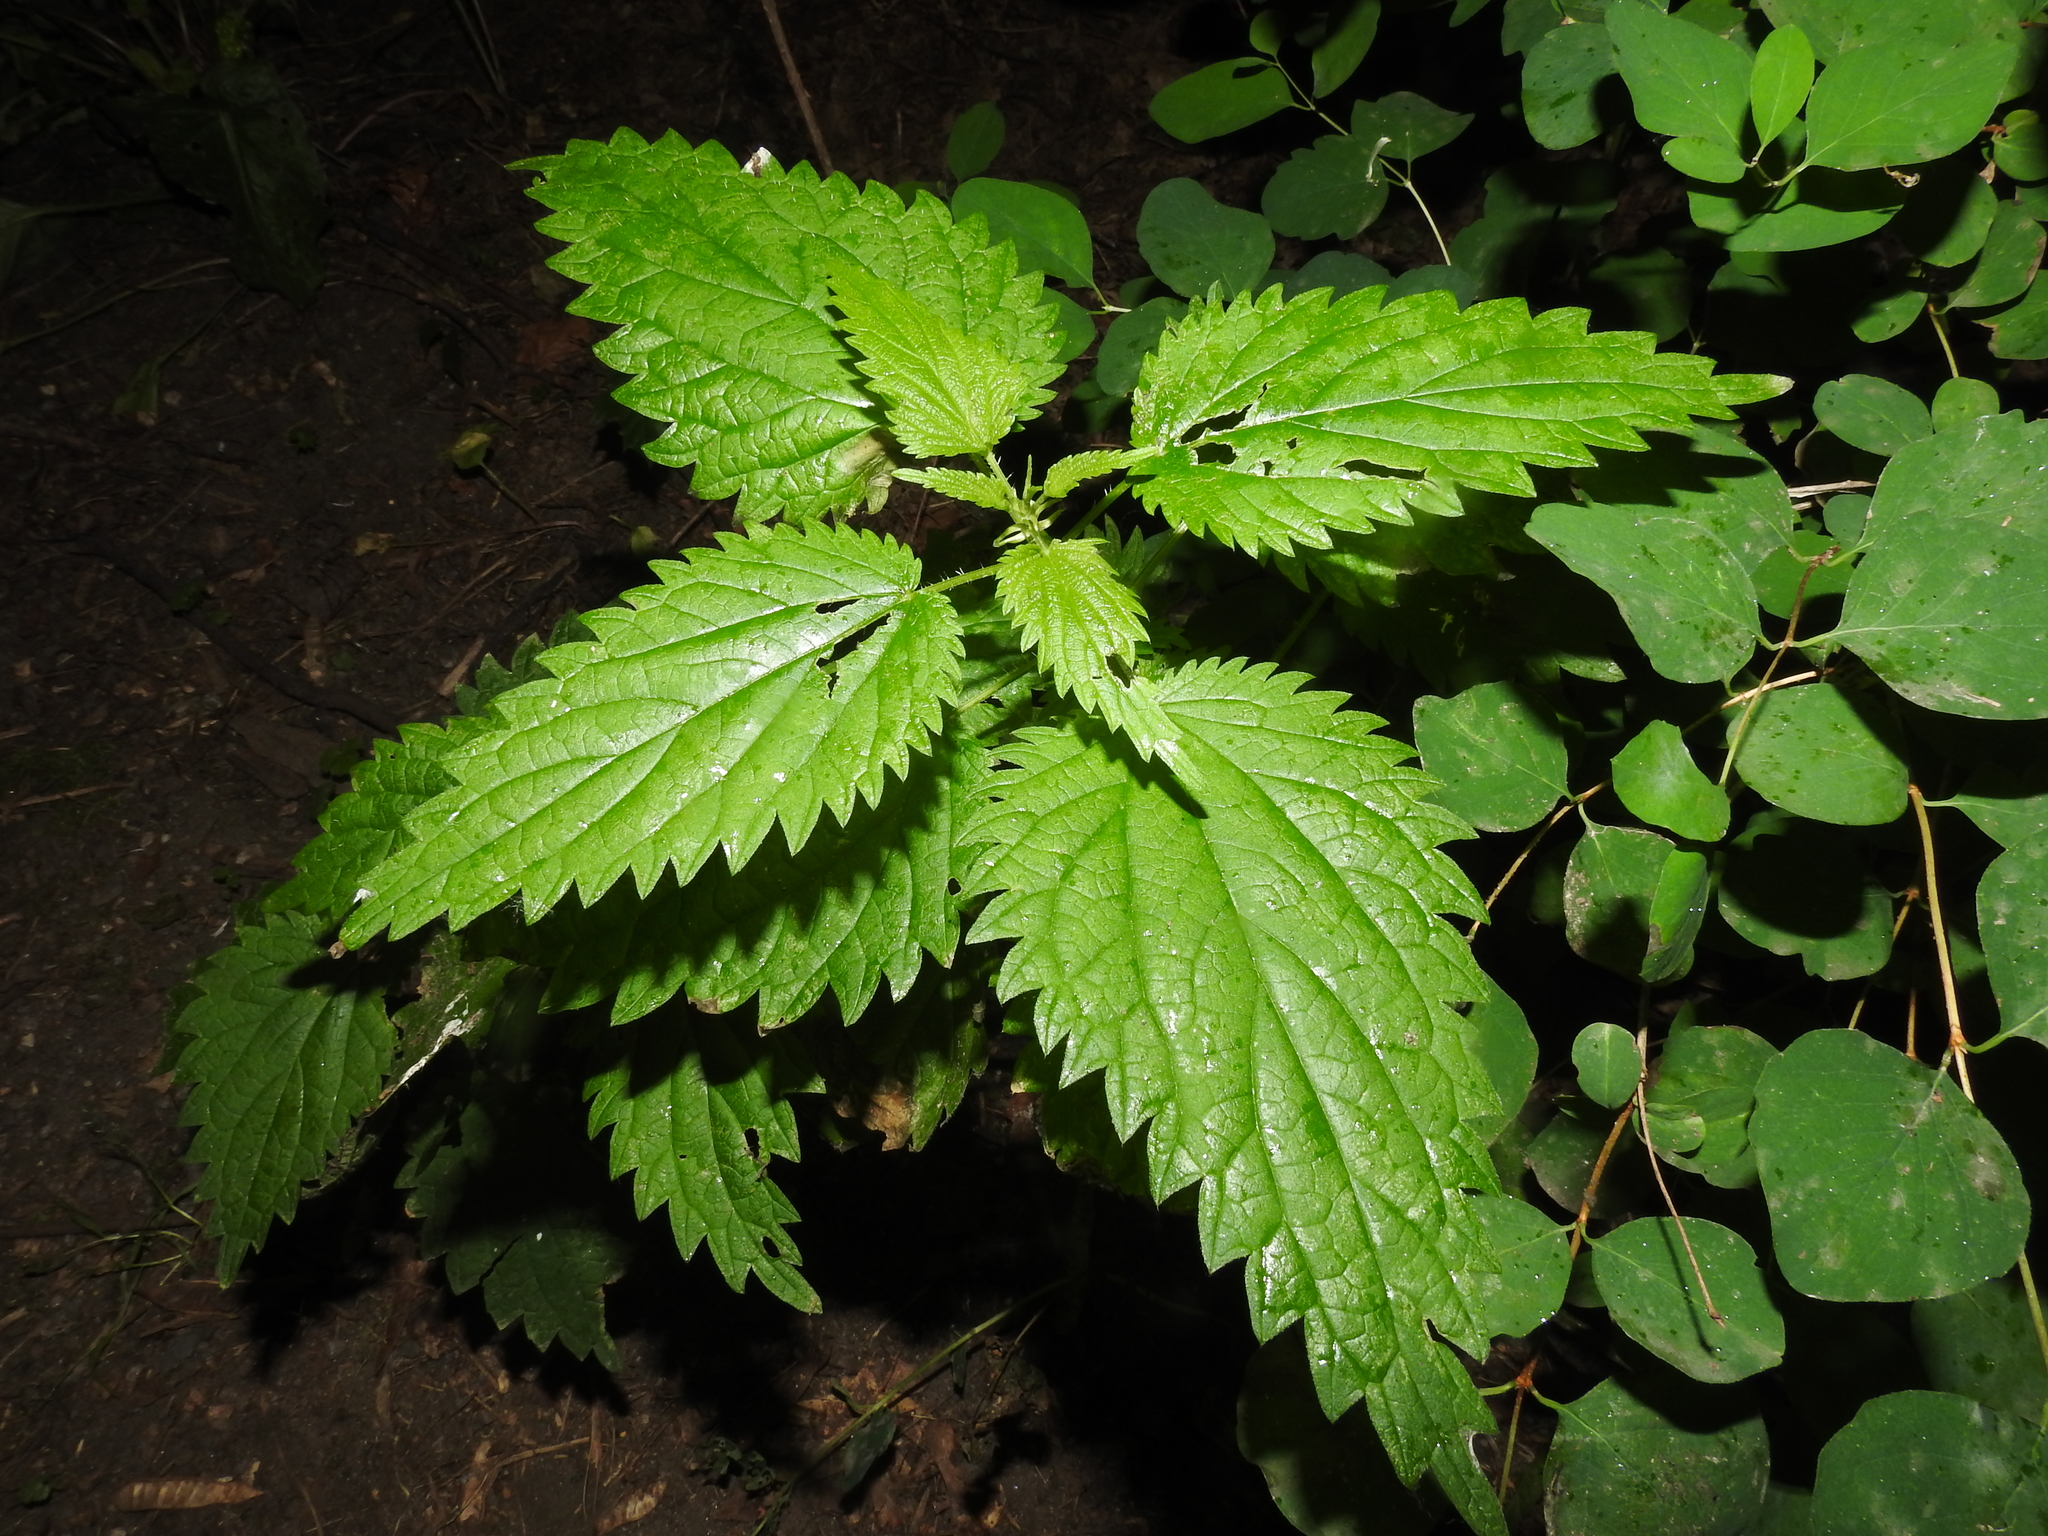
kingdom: Plantae
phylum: Tracheophyta
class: Magnoliopsida
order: Rosales
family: Urticaceae
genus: Urtica
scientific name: Urtica dioica
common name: Common nettle
